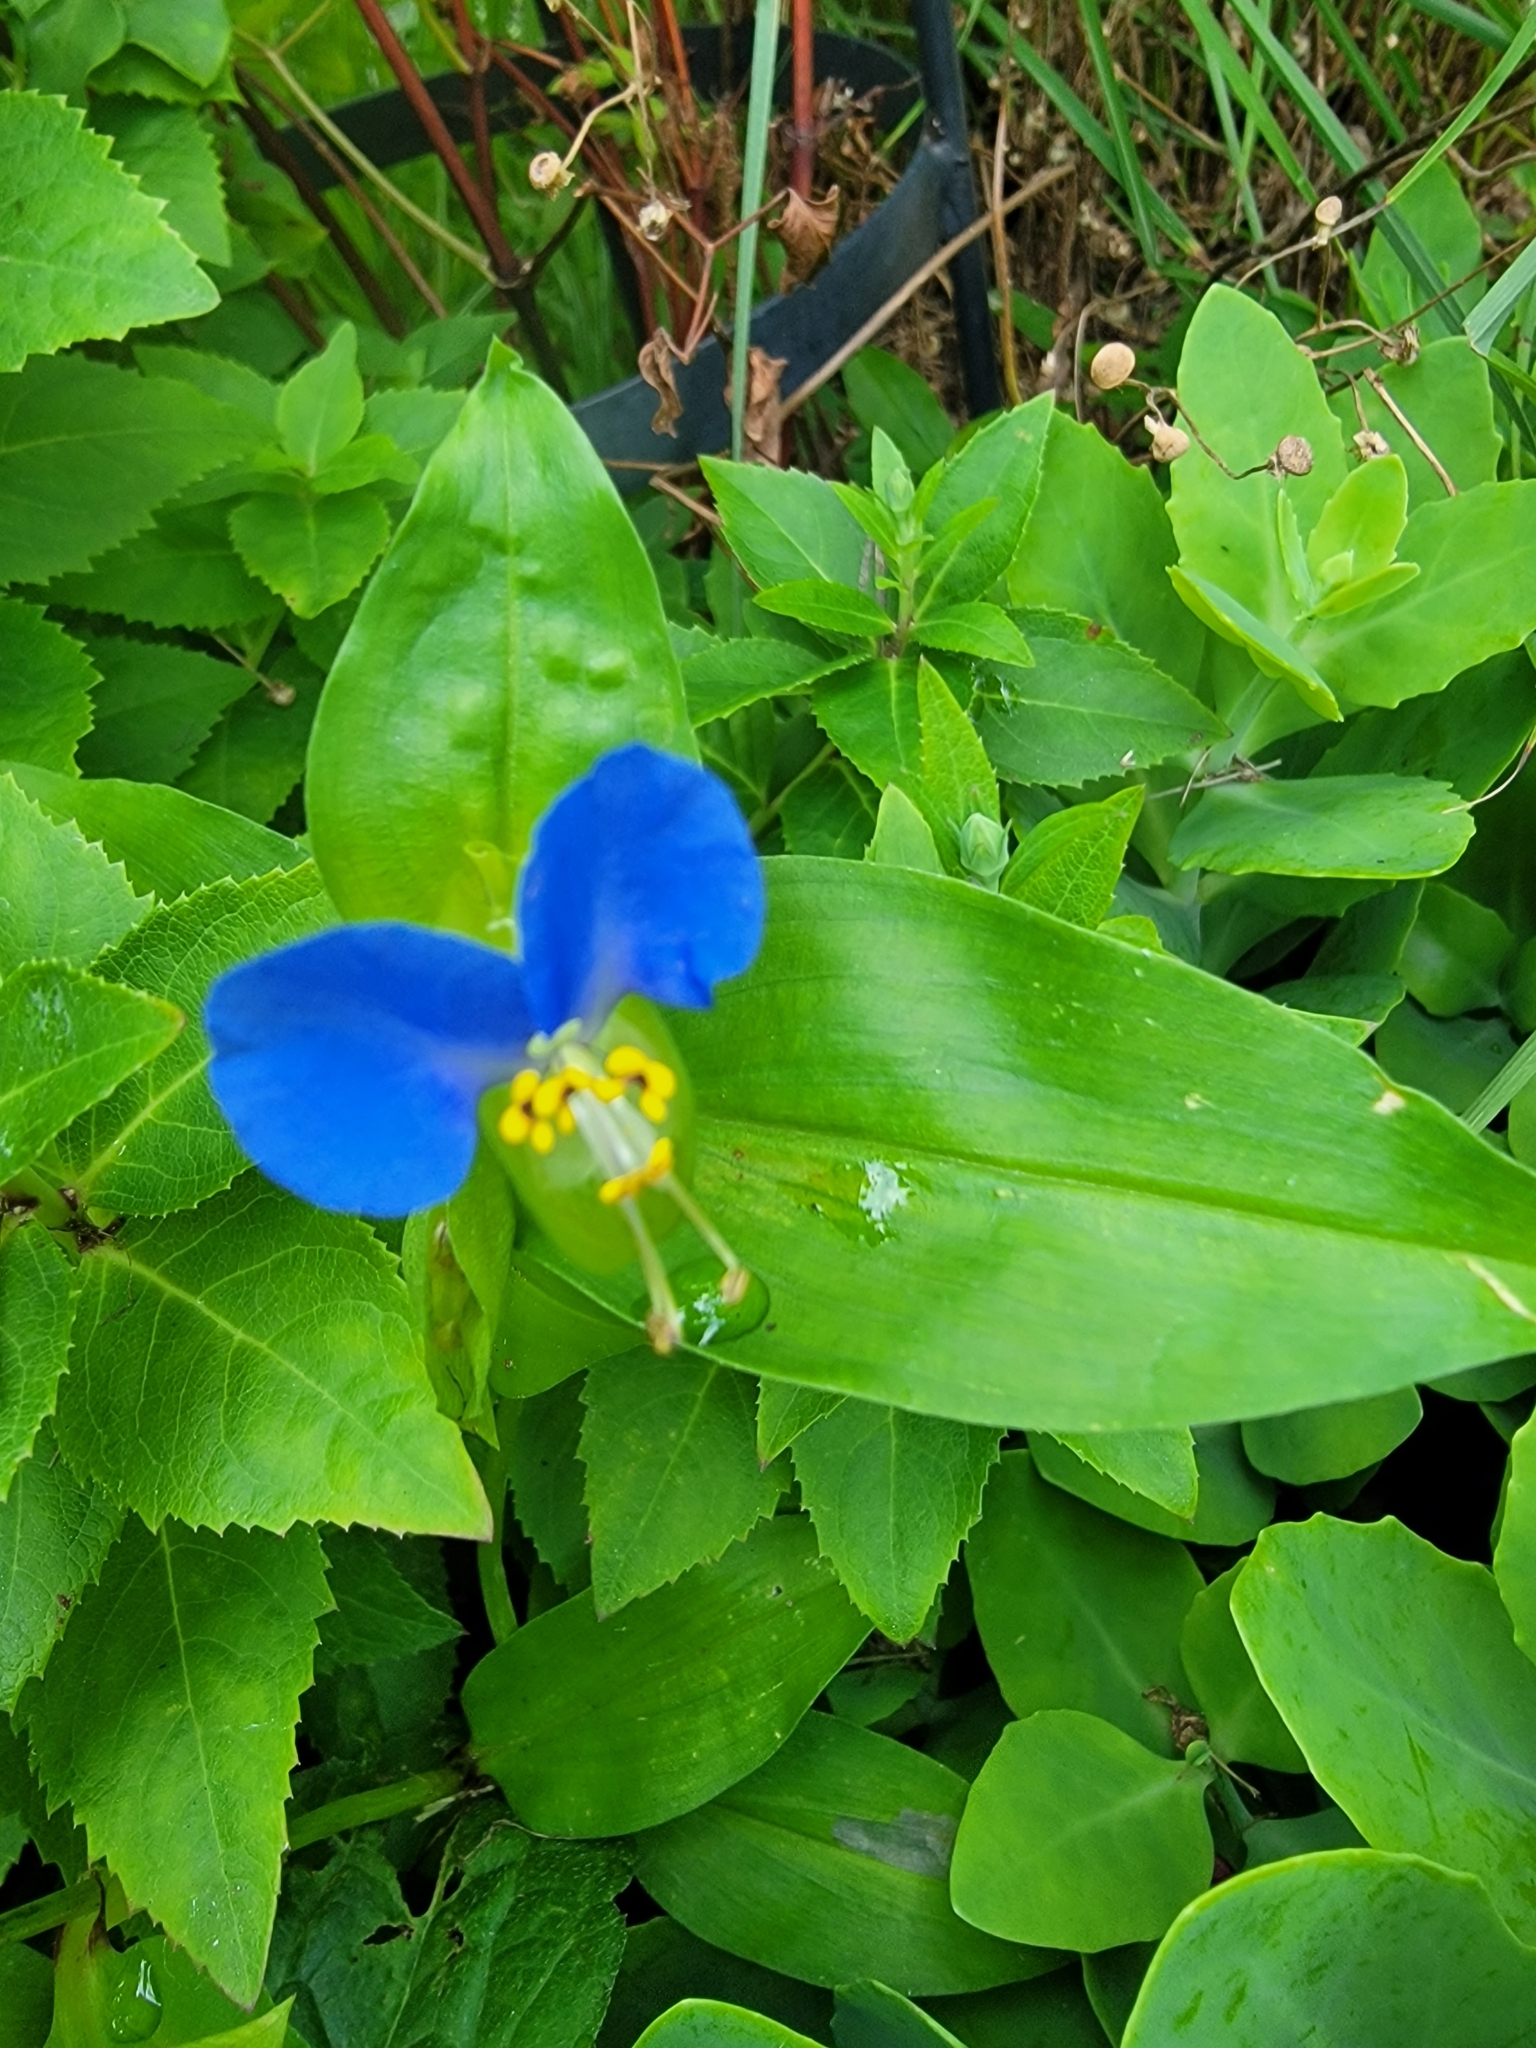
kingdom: Plantae
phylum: Tracheophyta
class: Liliopsida
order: Commelinales
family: Commelinaceae
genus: Commelina
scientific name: Commelina communis
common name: Asiatic dayflower
